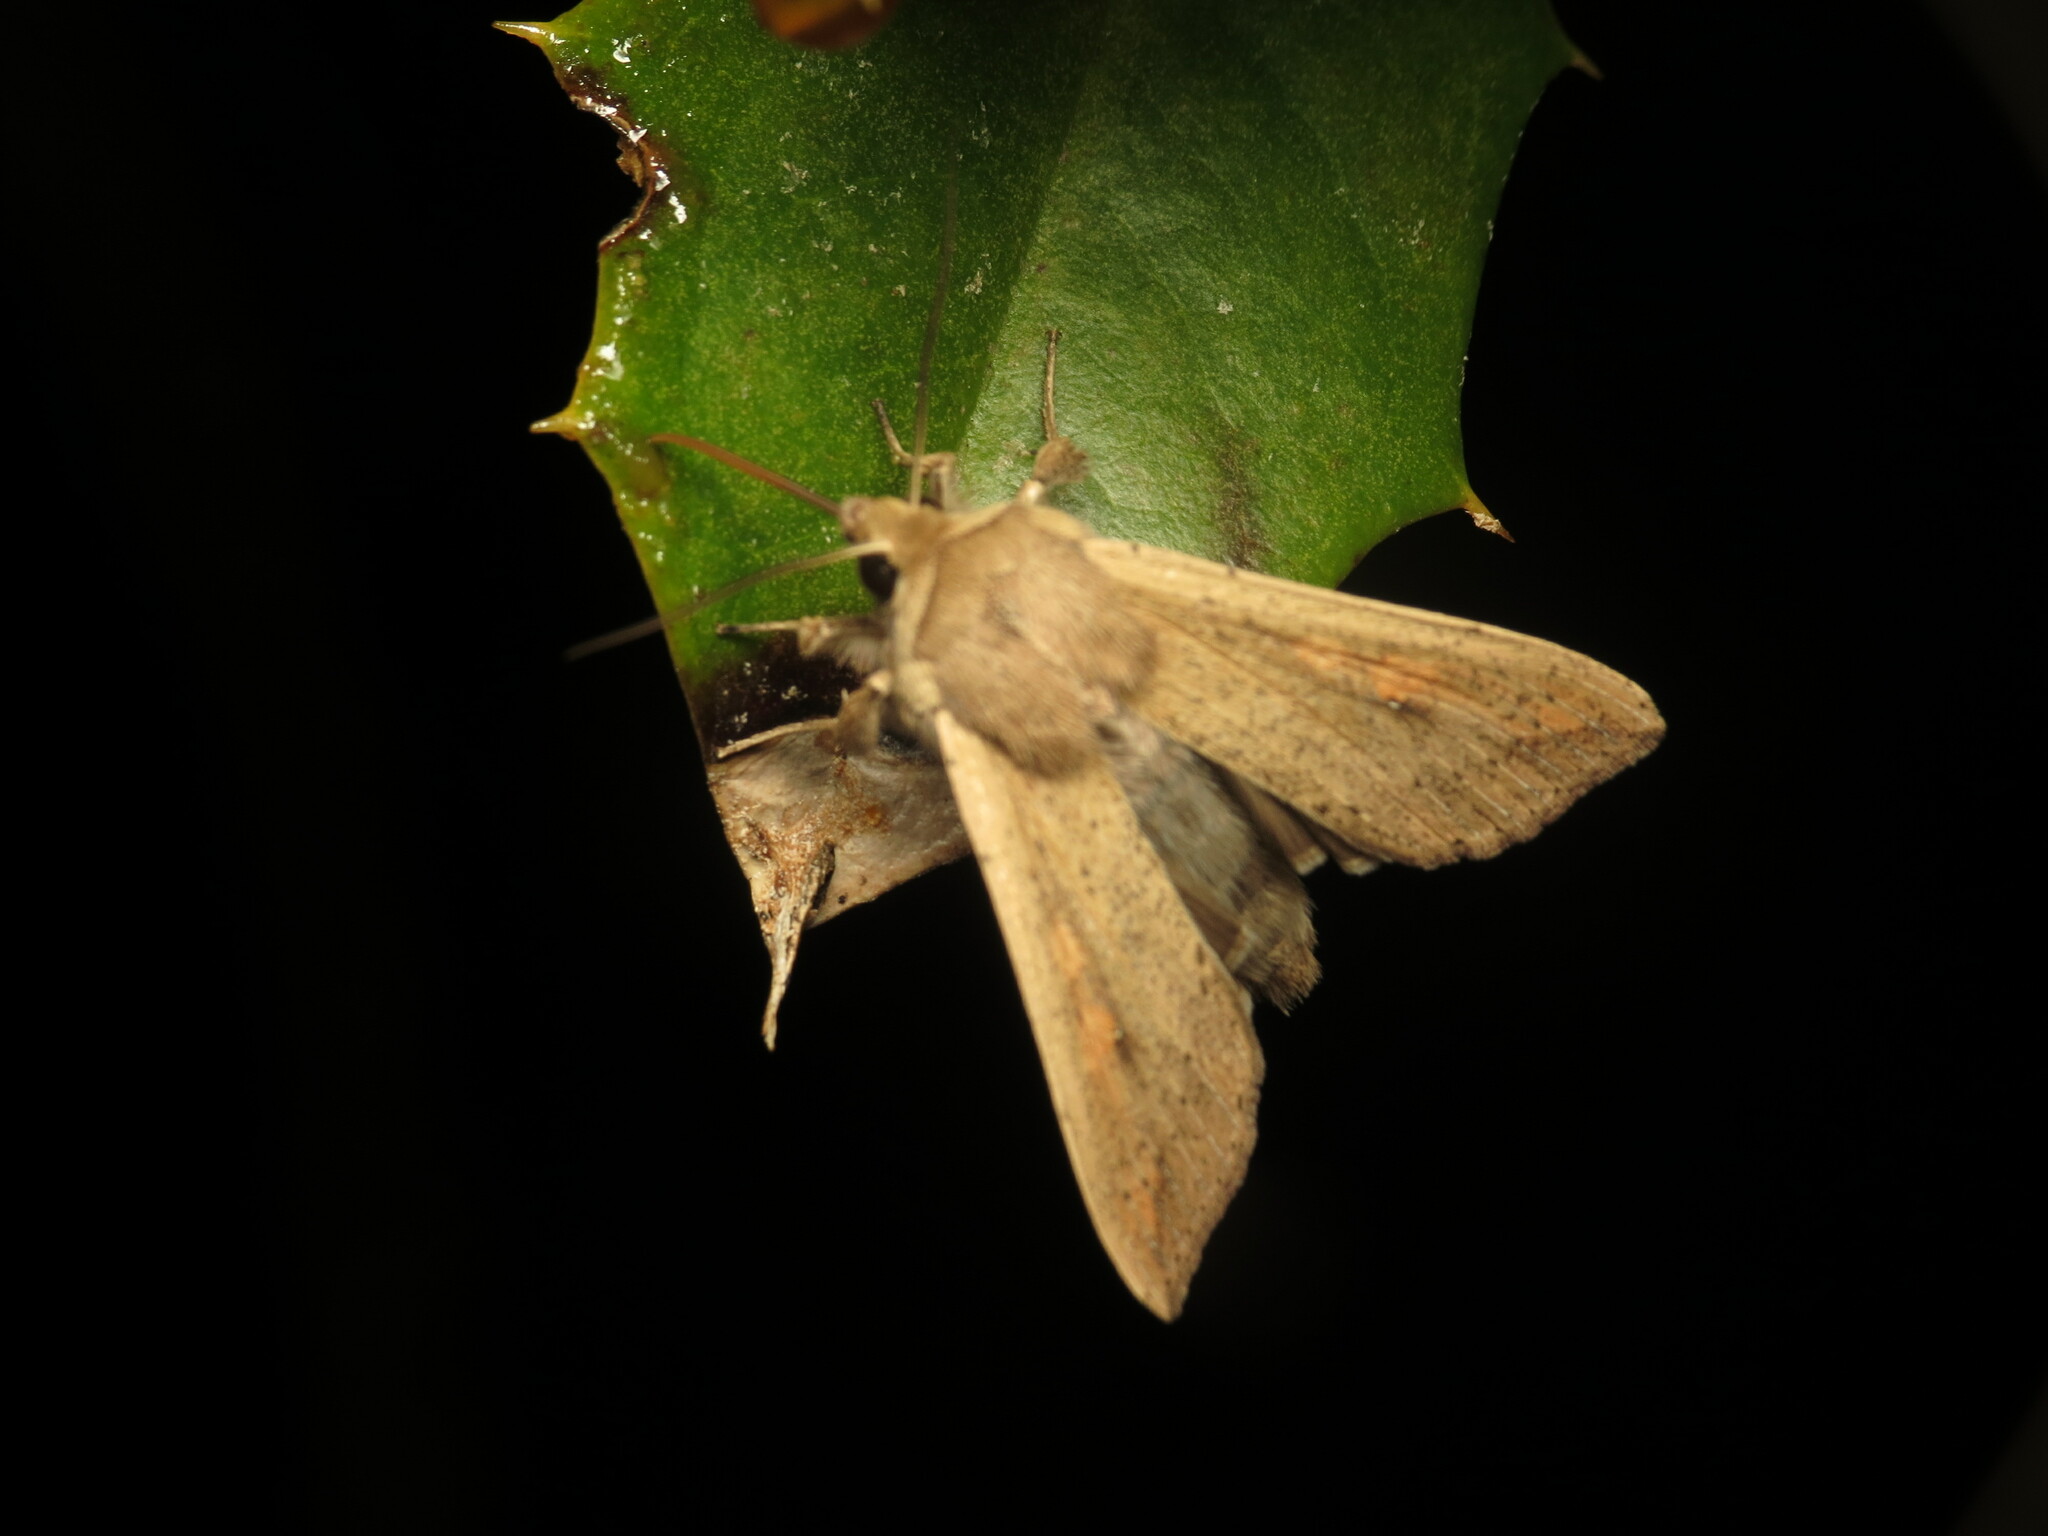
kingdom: Animalia
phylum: Arthropoda
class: Insecta
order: Lepidoptera
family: Noctuidae
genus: Mythimna
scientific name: Mythimna unipuncta
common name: White-speck
